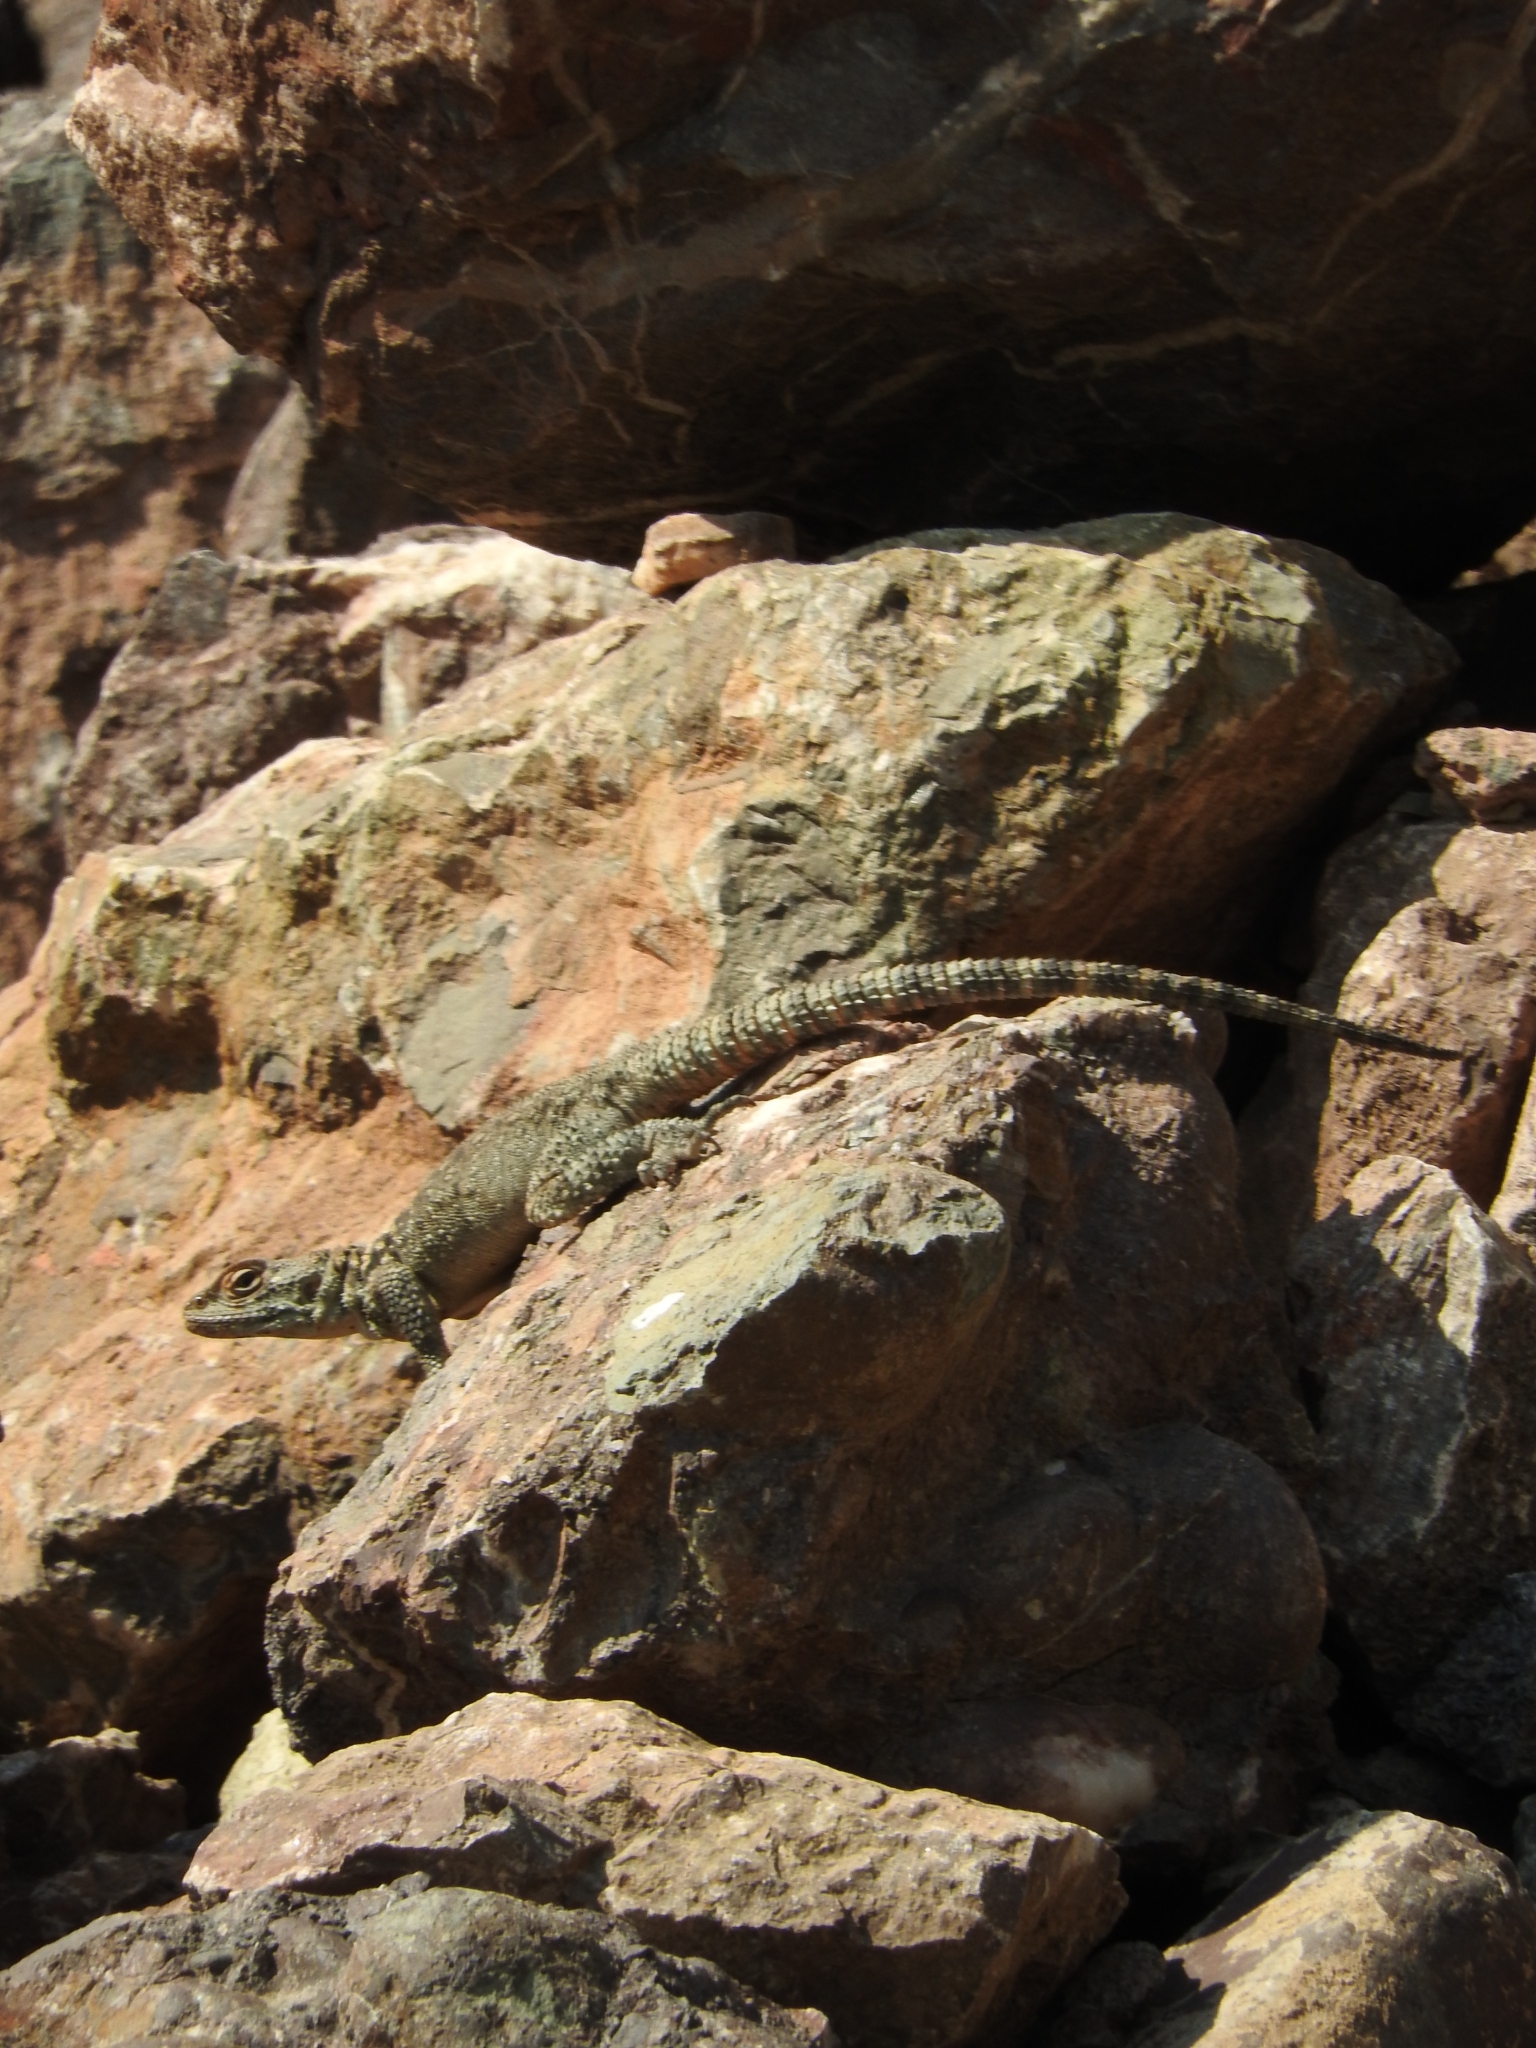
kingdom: Animalia
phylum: Chordata
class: Squamata
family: Agamidae
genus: Paralaudakia
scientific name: Paralaudakia caucasia
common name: Caucasian agama
